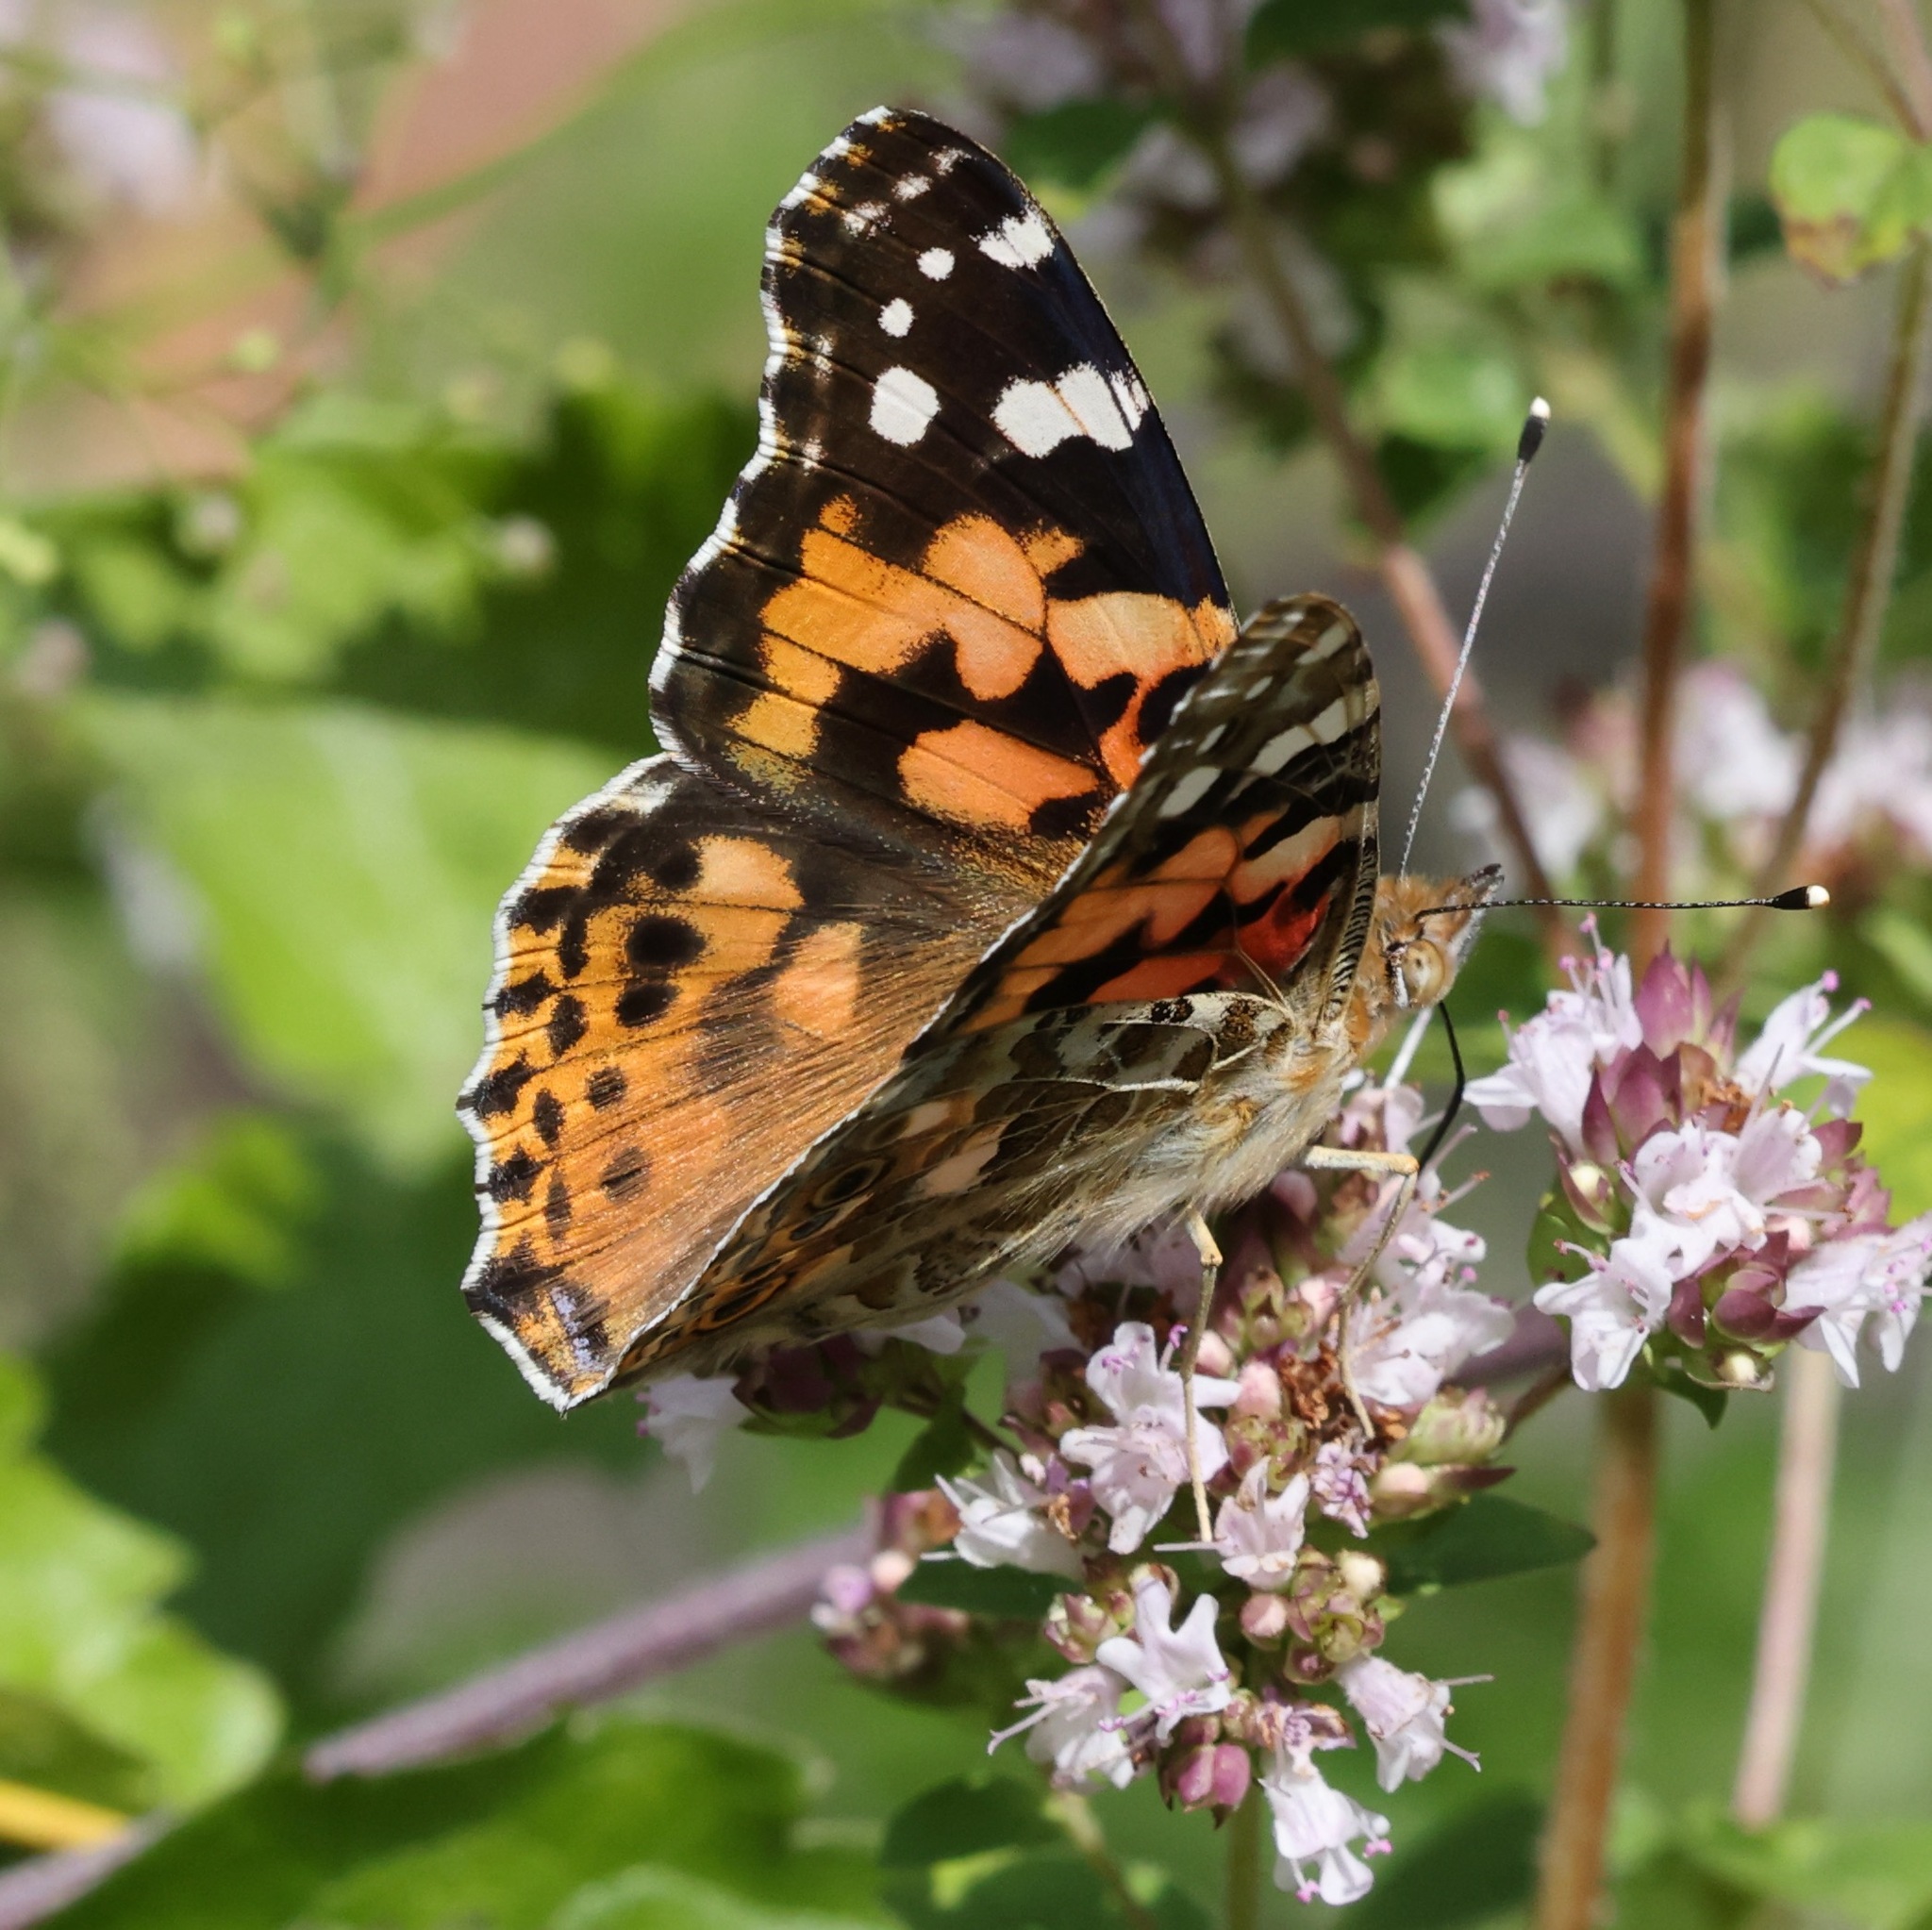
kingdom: Animalia
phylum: Arthropoda
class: Insecta
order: Lepidoptera
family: Nymphalidae
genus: Vanessa
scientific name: Vanessa cardui
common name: Painted lady
